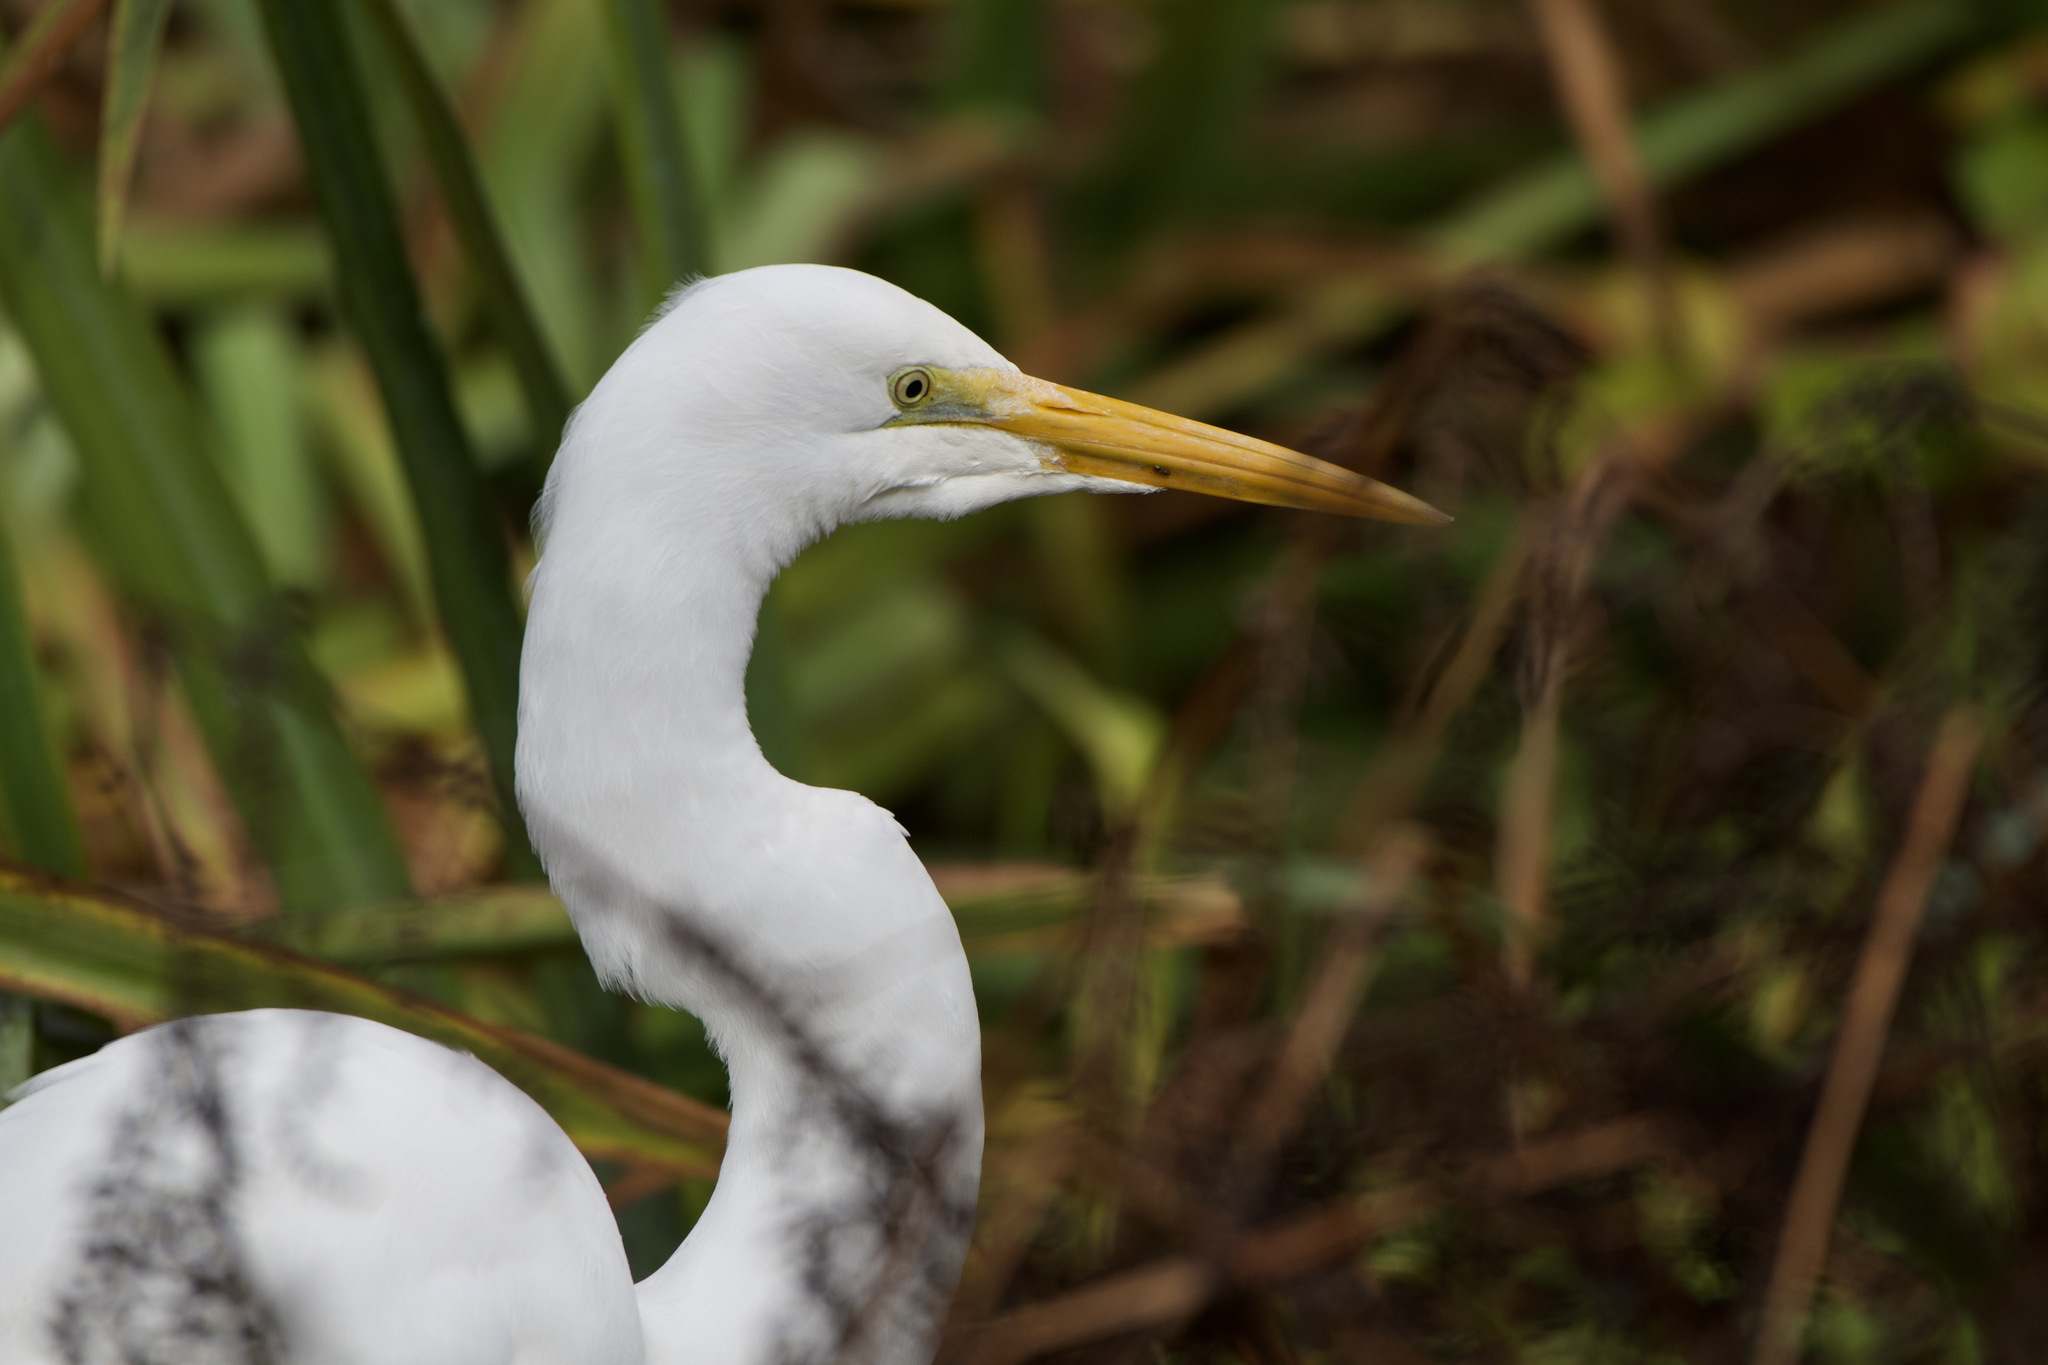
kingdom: Animalia
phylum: Chordata
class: Aves
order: Pelecaniformes
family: Ardeidae
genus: Ardea
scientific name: Ardea alba
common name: Great egret
